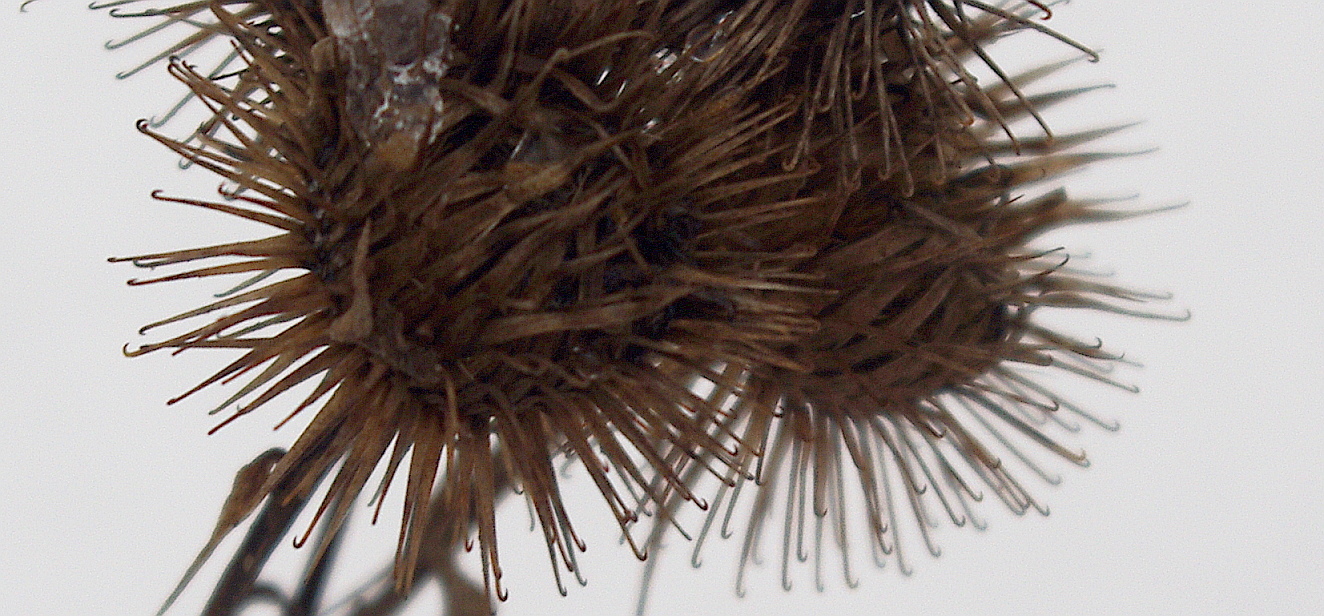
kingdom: Plantae
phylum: Tracheophyta
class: Magnoliopsida
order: Asterales
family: Asteraceae
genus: Arctium
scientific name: Arctium lappa
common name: Greater burdock
